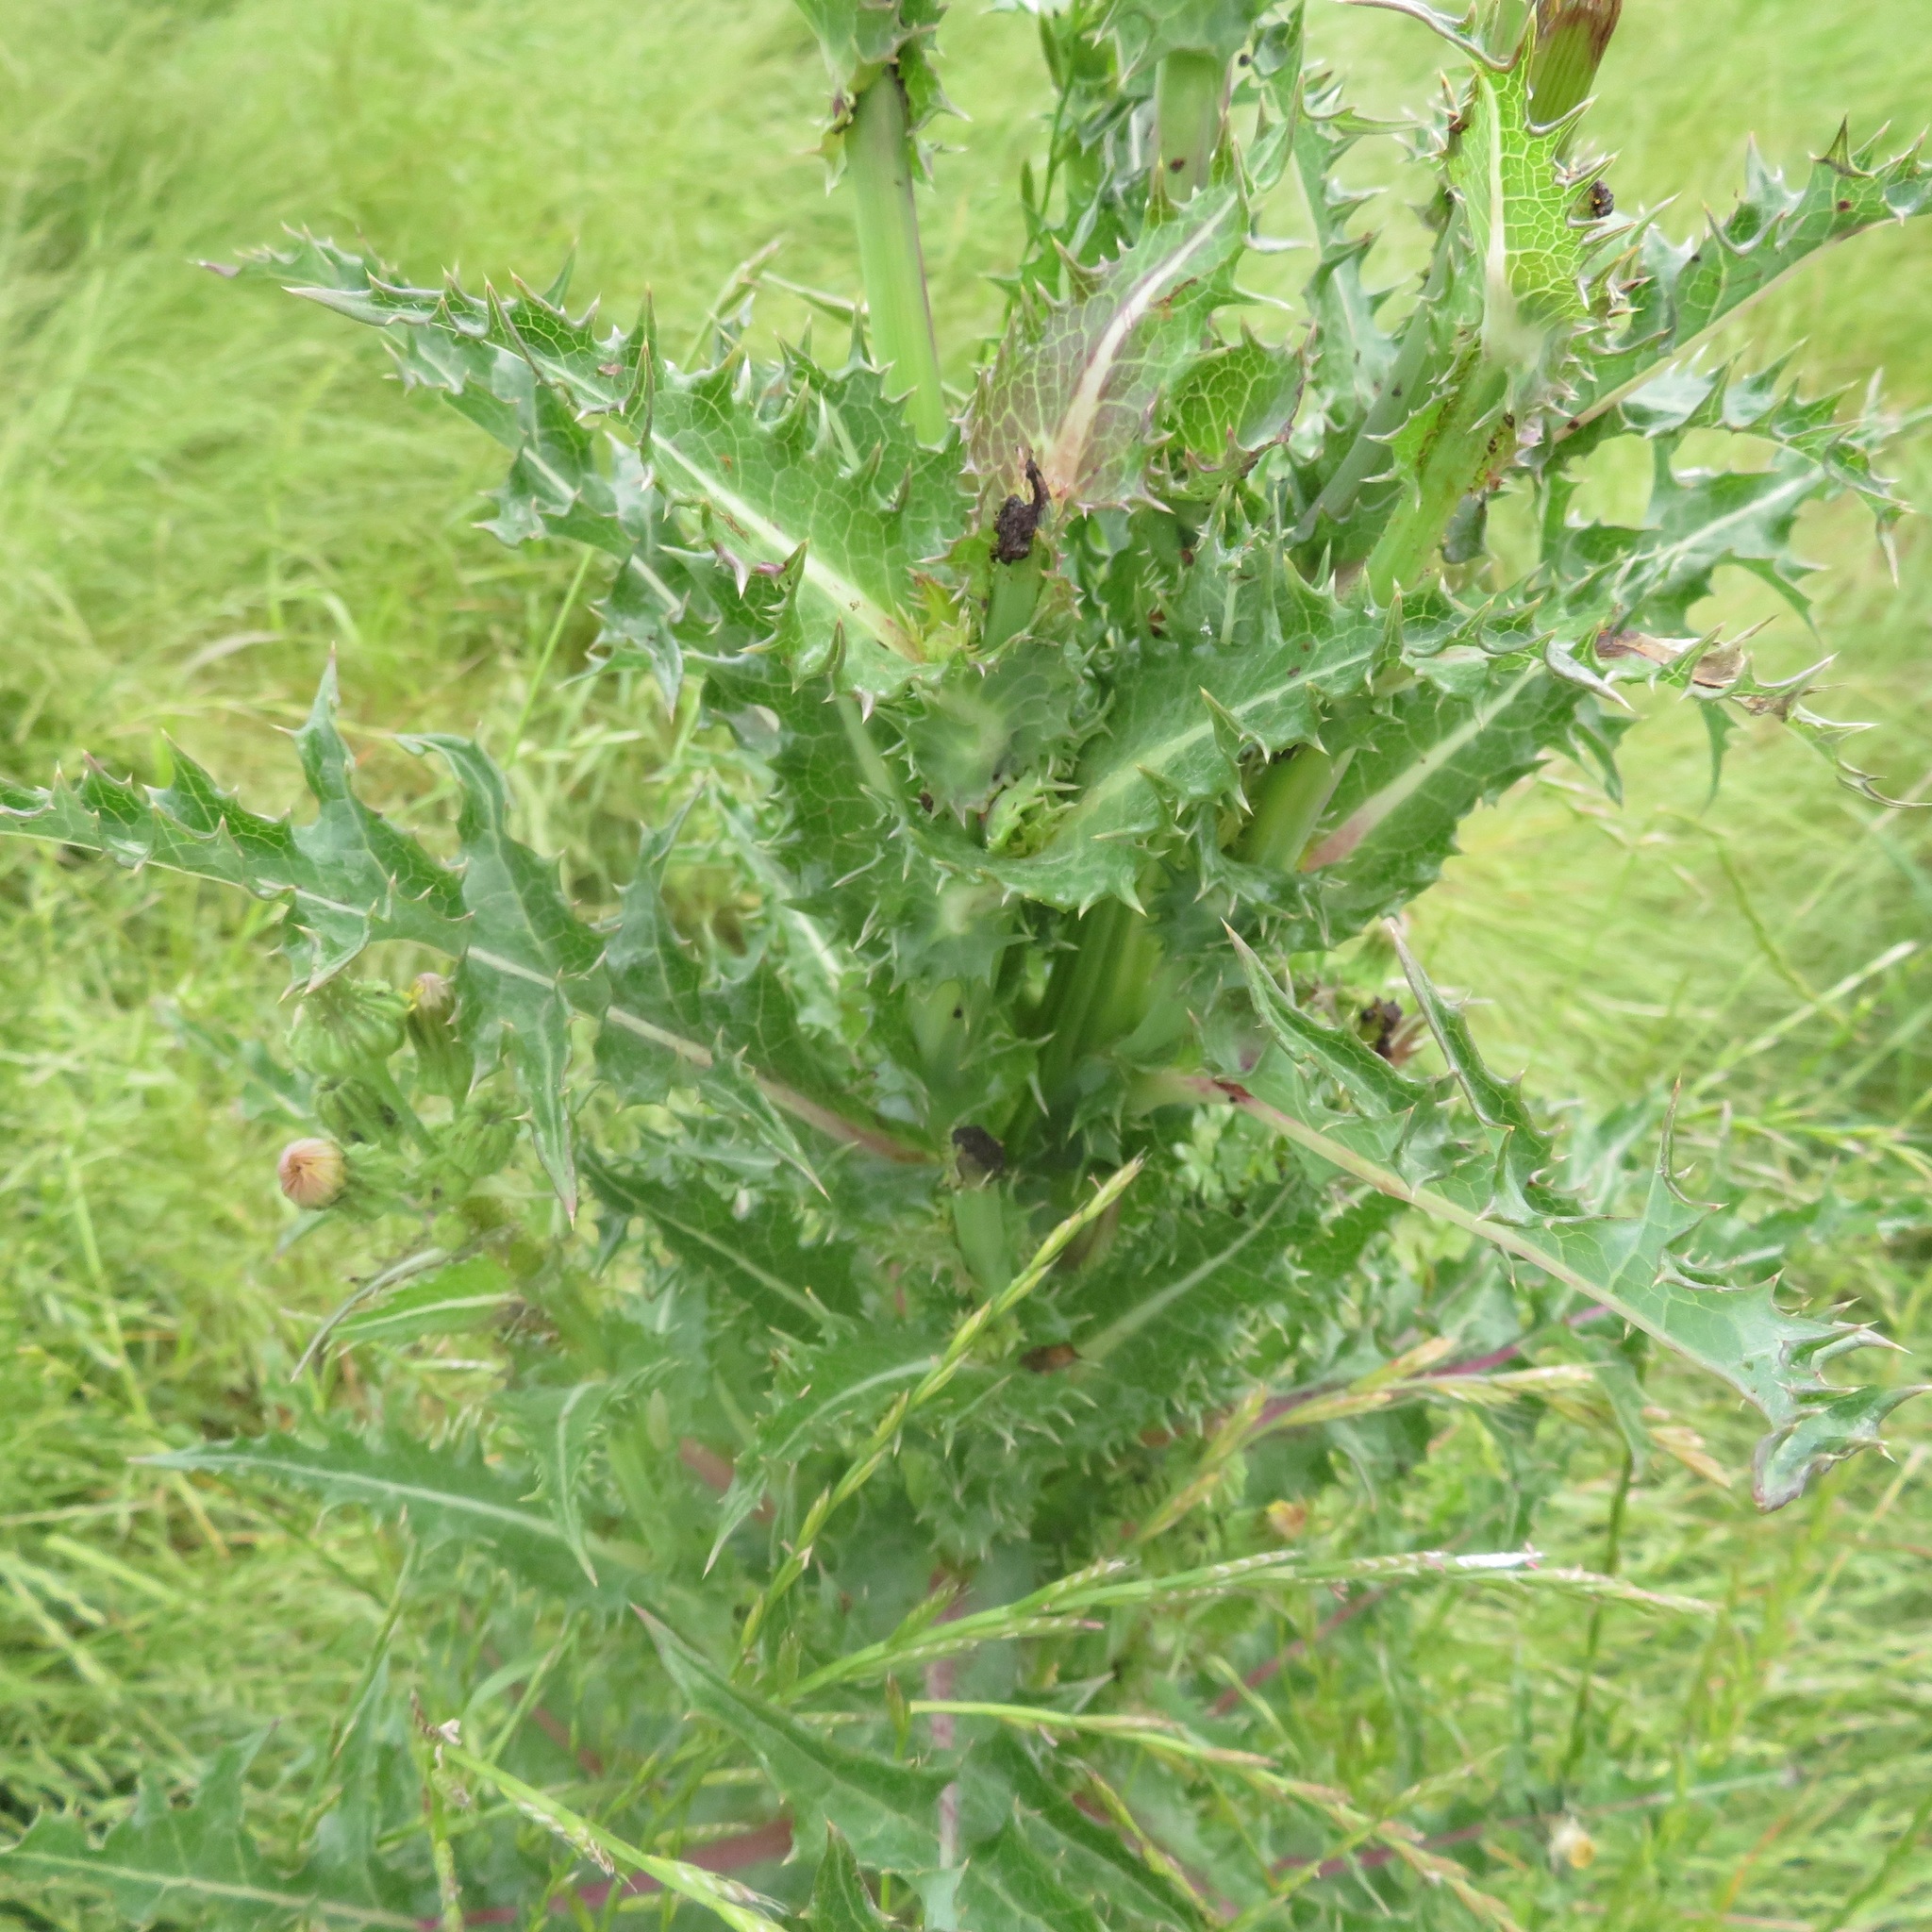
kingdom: Plantae
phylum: Tracheophyta
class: Magnoliopsida
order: Asterales
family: Asteraceae
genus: Sonchus
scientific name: Sonchus asper
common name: Prickly sow-thistle
